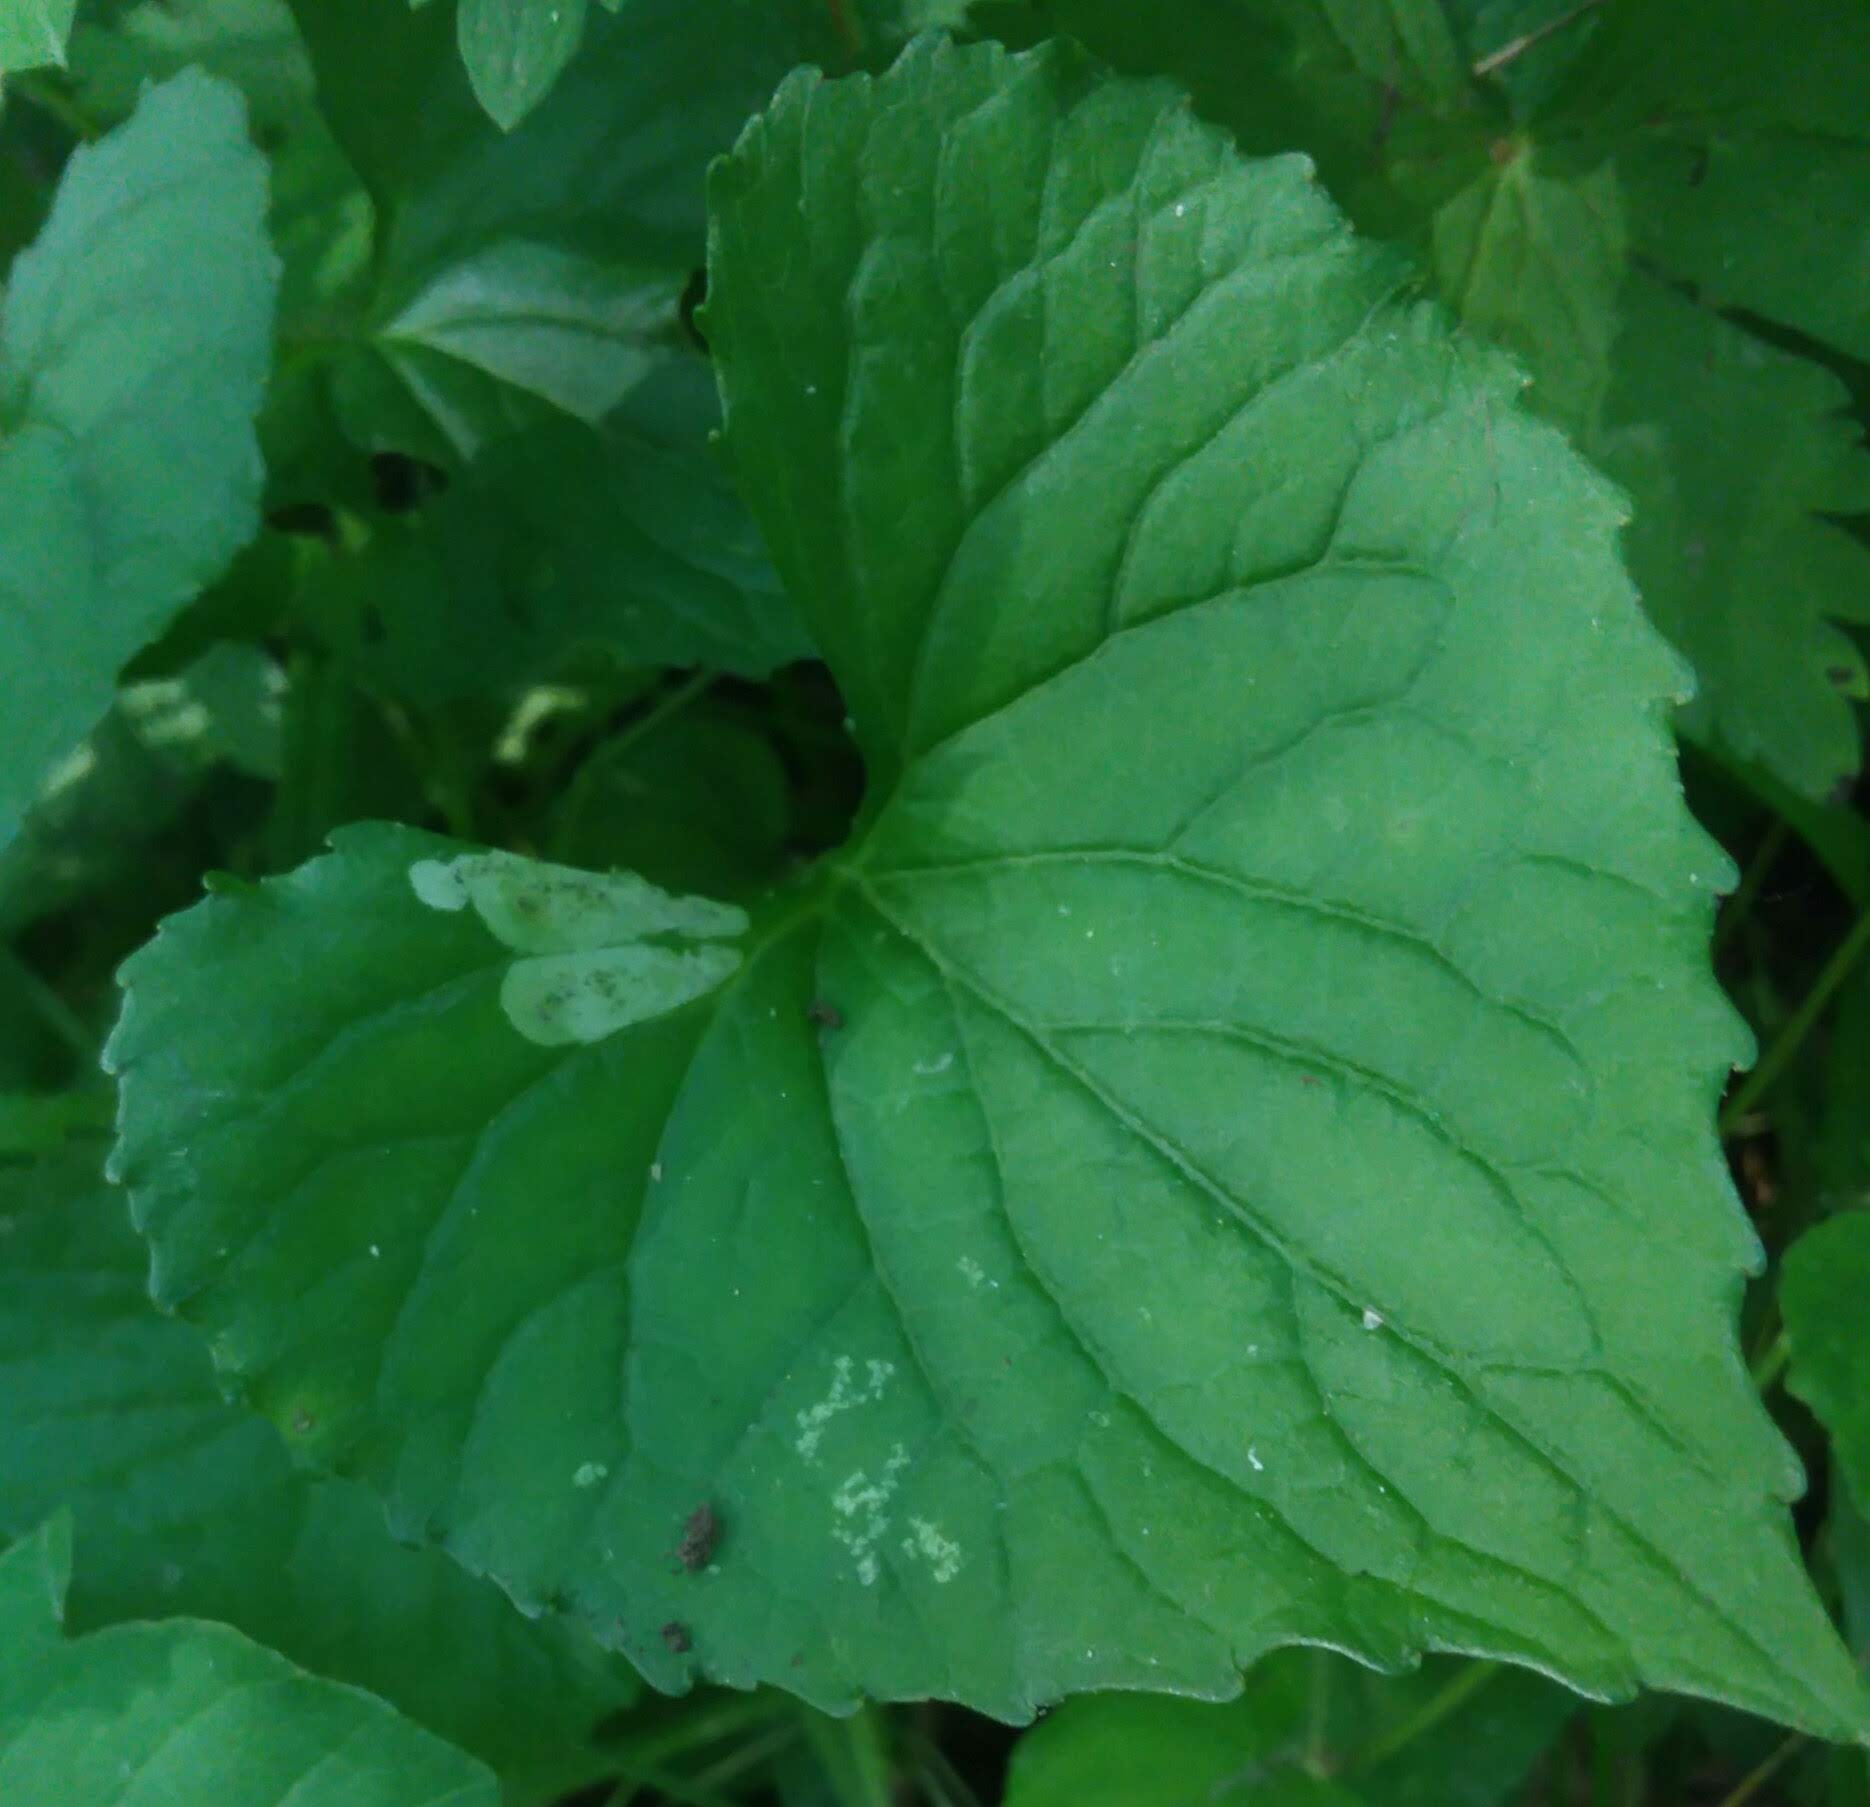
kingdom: Animalia
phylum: Arthropoda
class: Insecta
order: Diptera
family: Agromyzidae
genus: Liriomyza
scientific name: Liriomyza violivora
